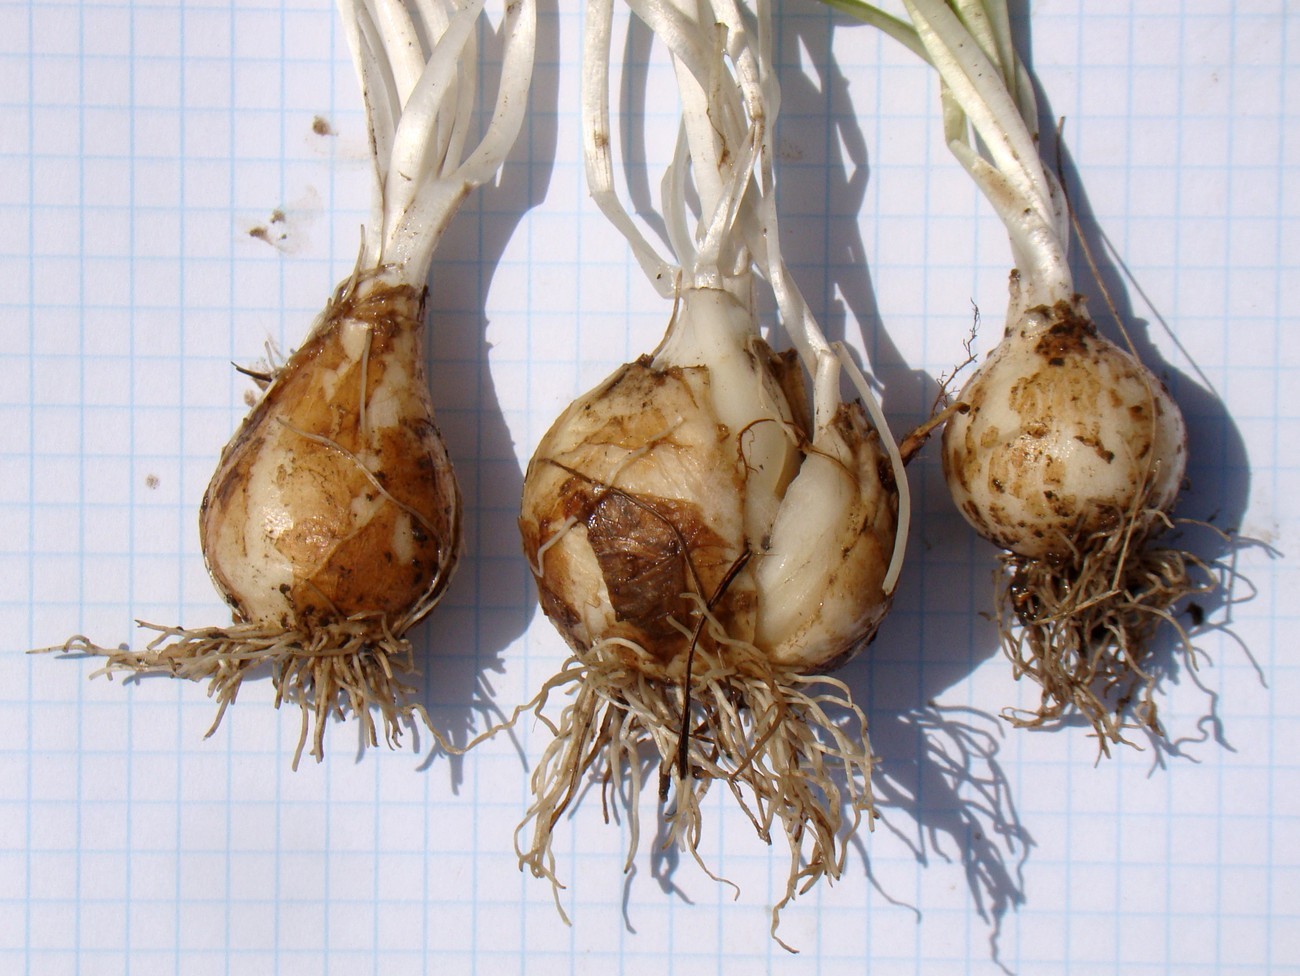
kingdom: Plantae
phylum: Tracheophyta
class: Liliopsida
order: Asparagales
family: Asparagaceae
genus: Ornithogalum
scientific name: Ornithogalum woronowii
